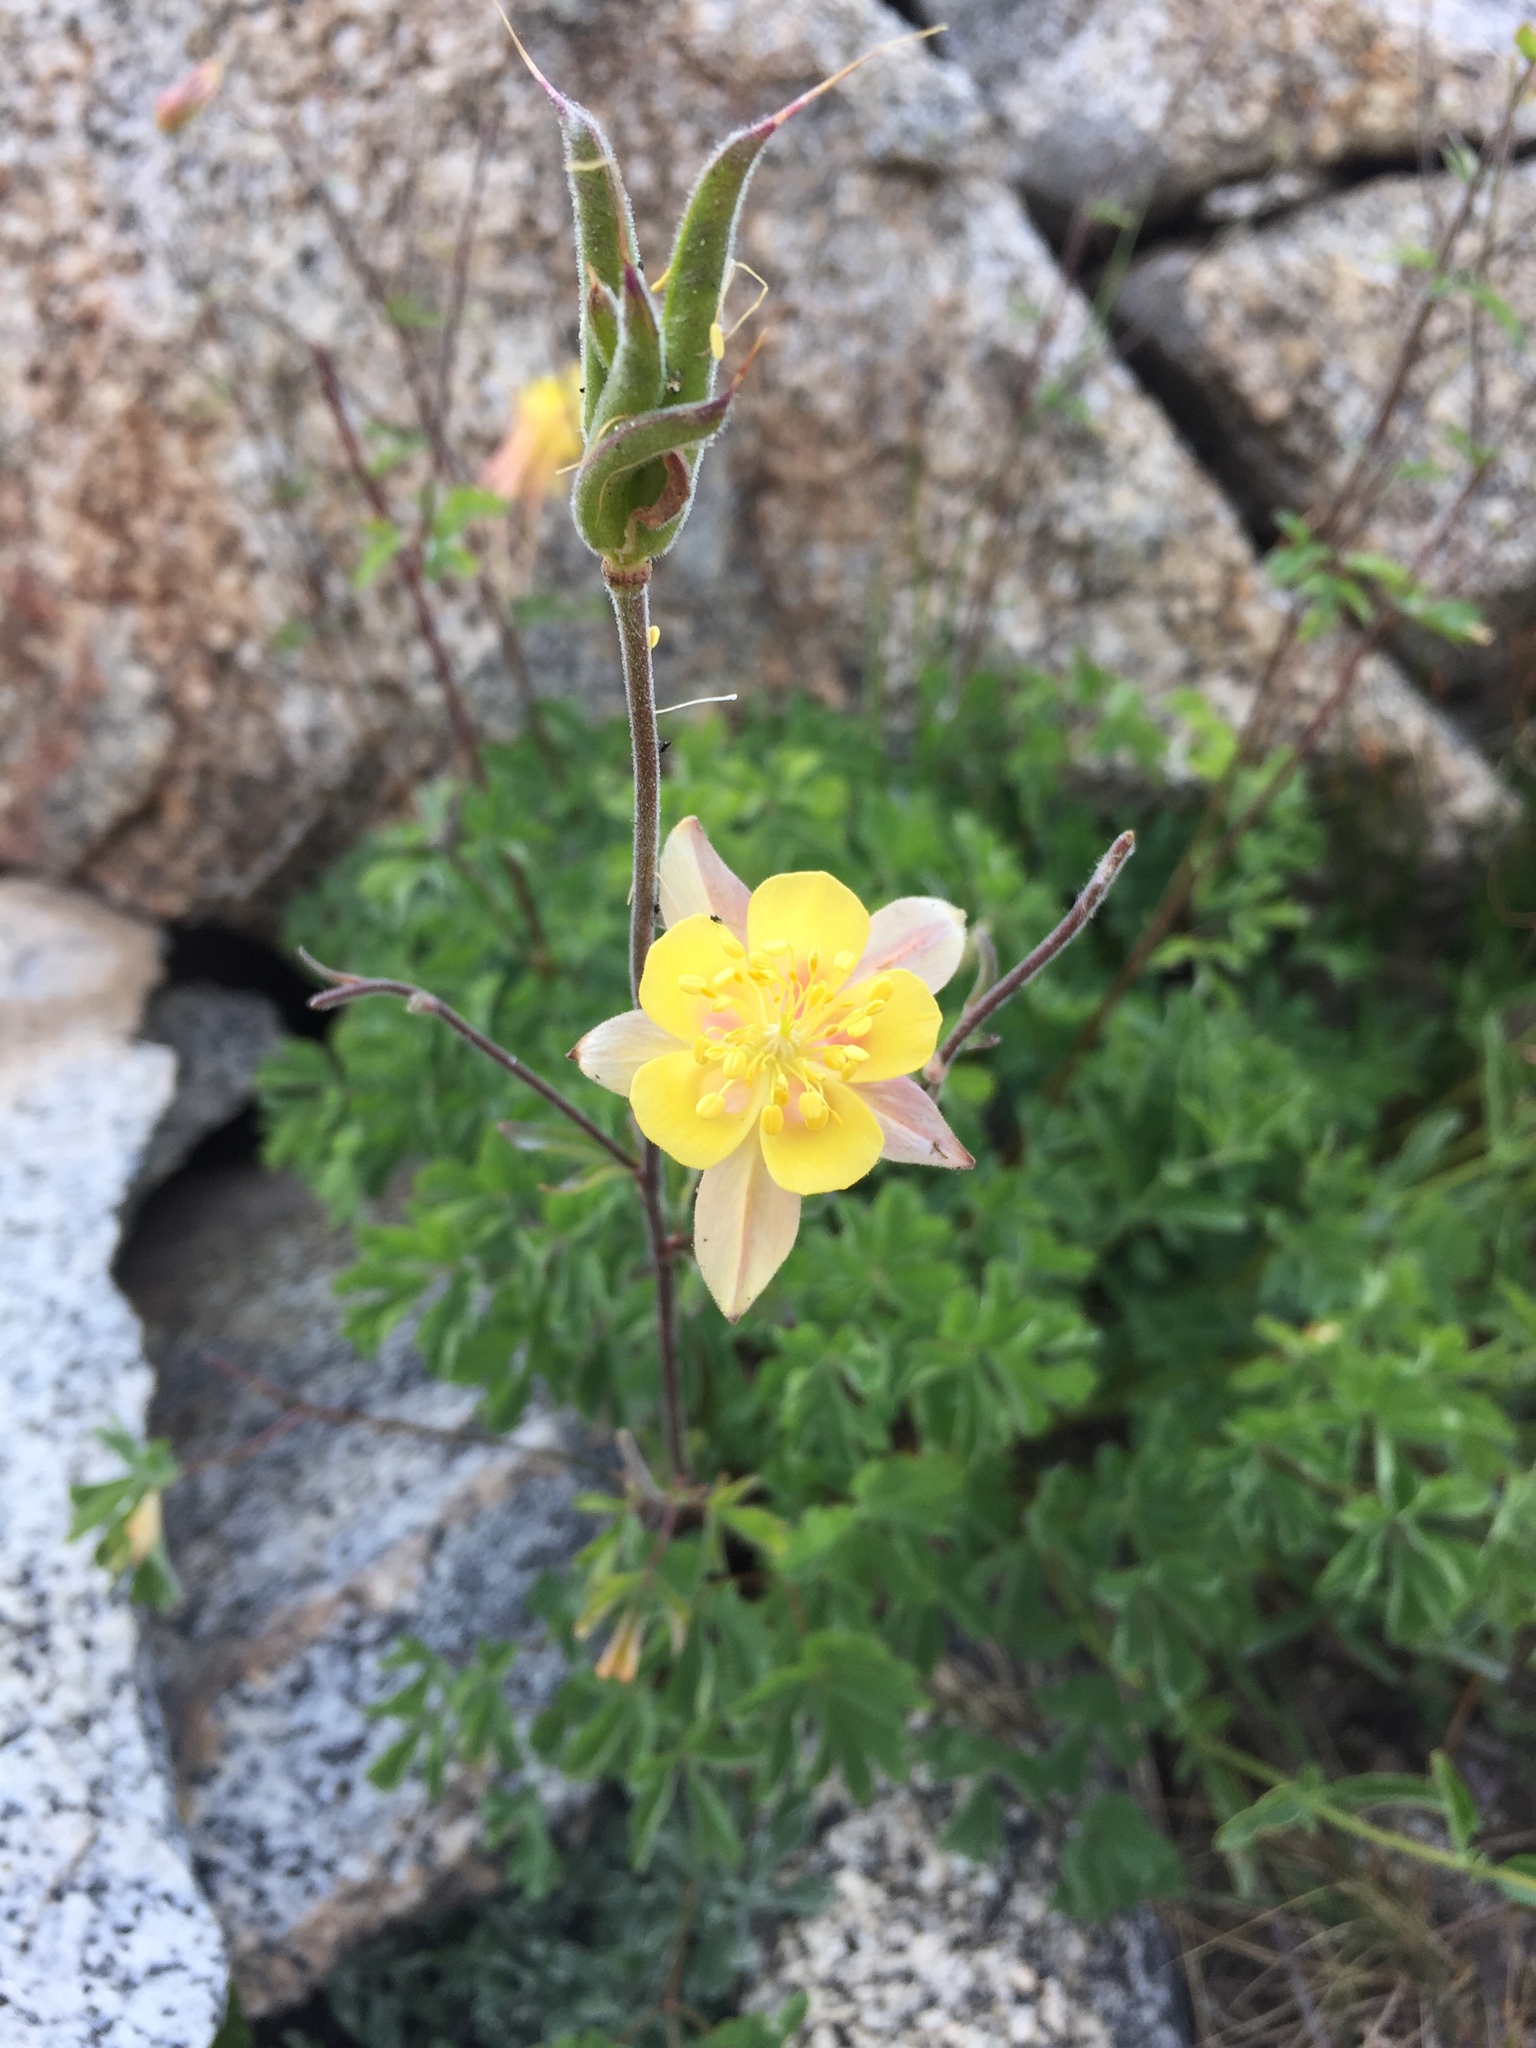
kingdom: Plantae
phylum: Tracheophyta
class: Magnoliopsida
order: Ranunculales
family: Ranunculaceae
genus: Aquilegia
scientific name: Aquilegia pubescens
